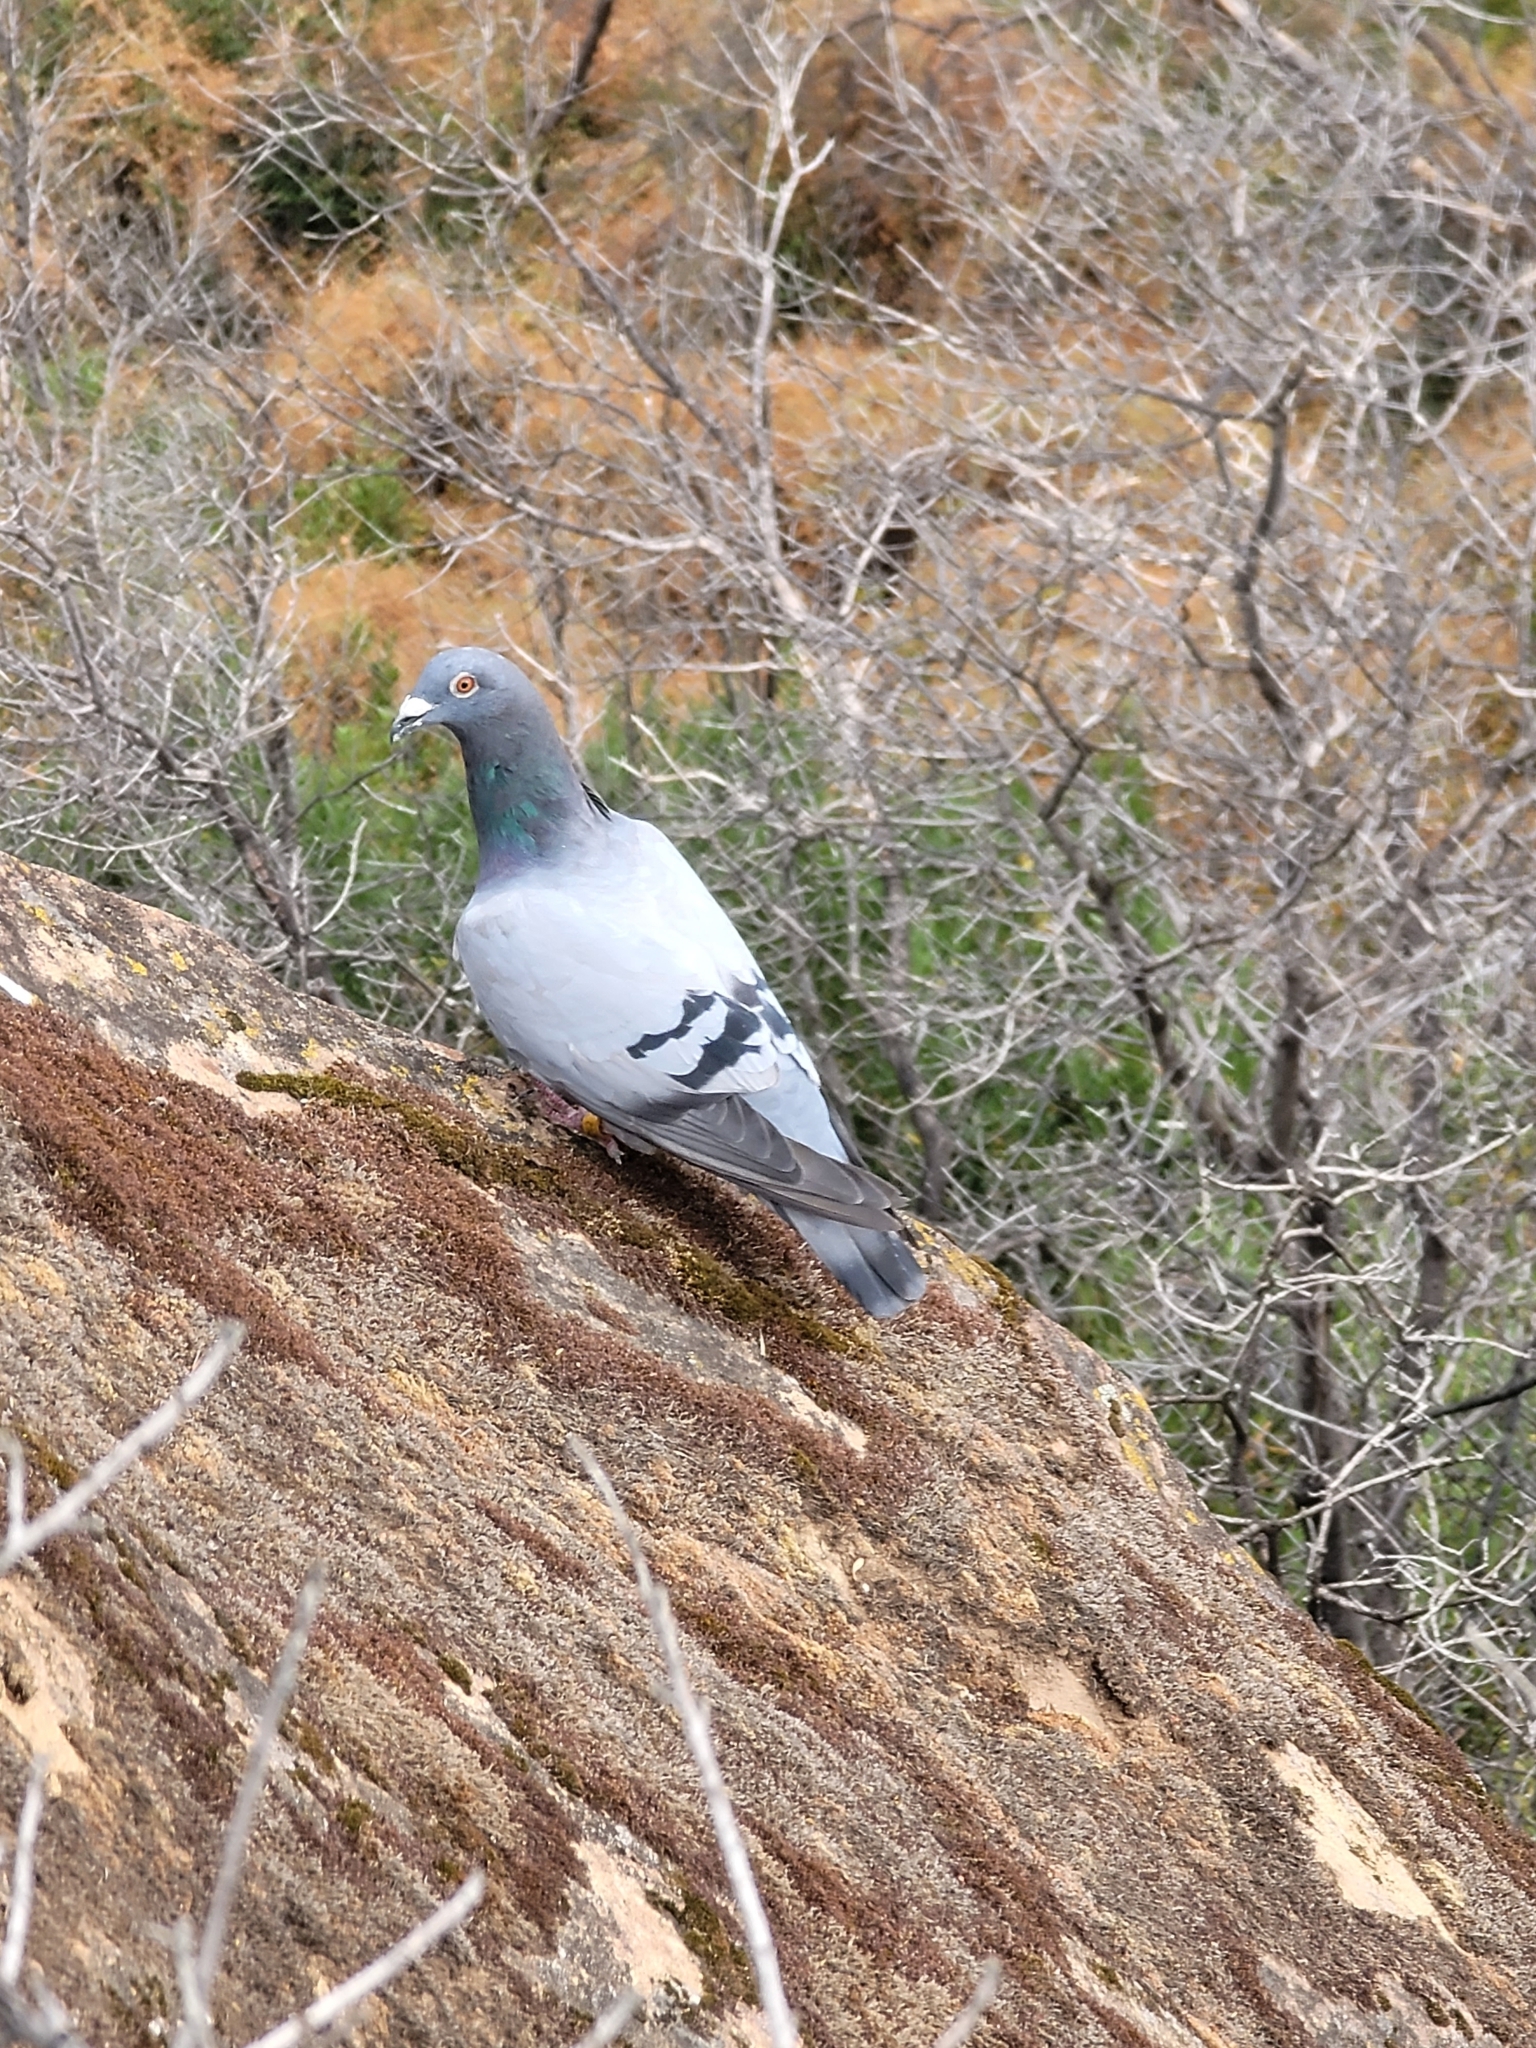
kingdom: Animalia
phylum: Chordata
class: Aves
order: Columbiformes
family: Columbidae
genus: Columba
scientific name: Columba livia
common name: Rock pigeon
